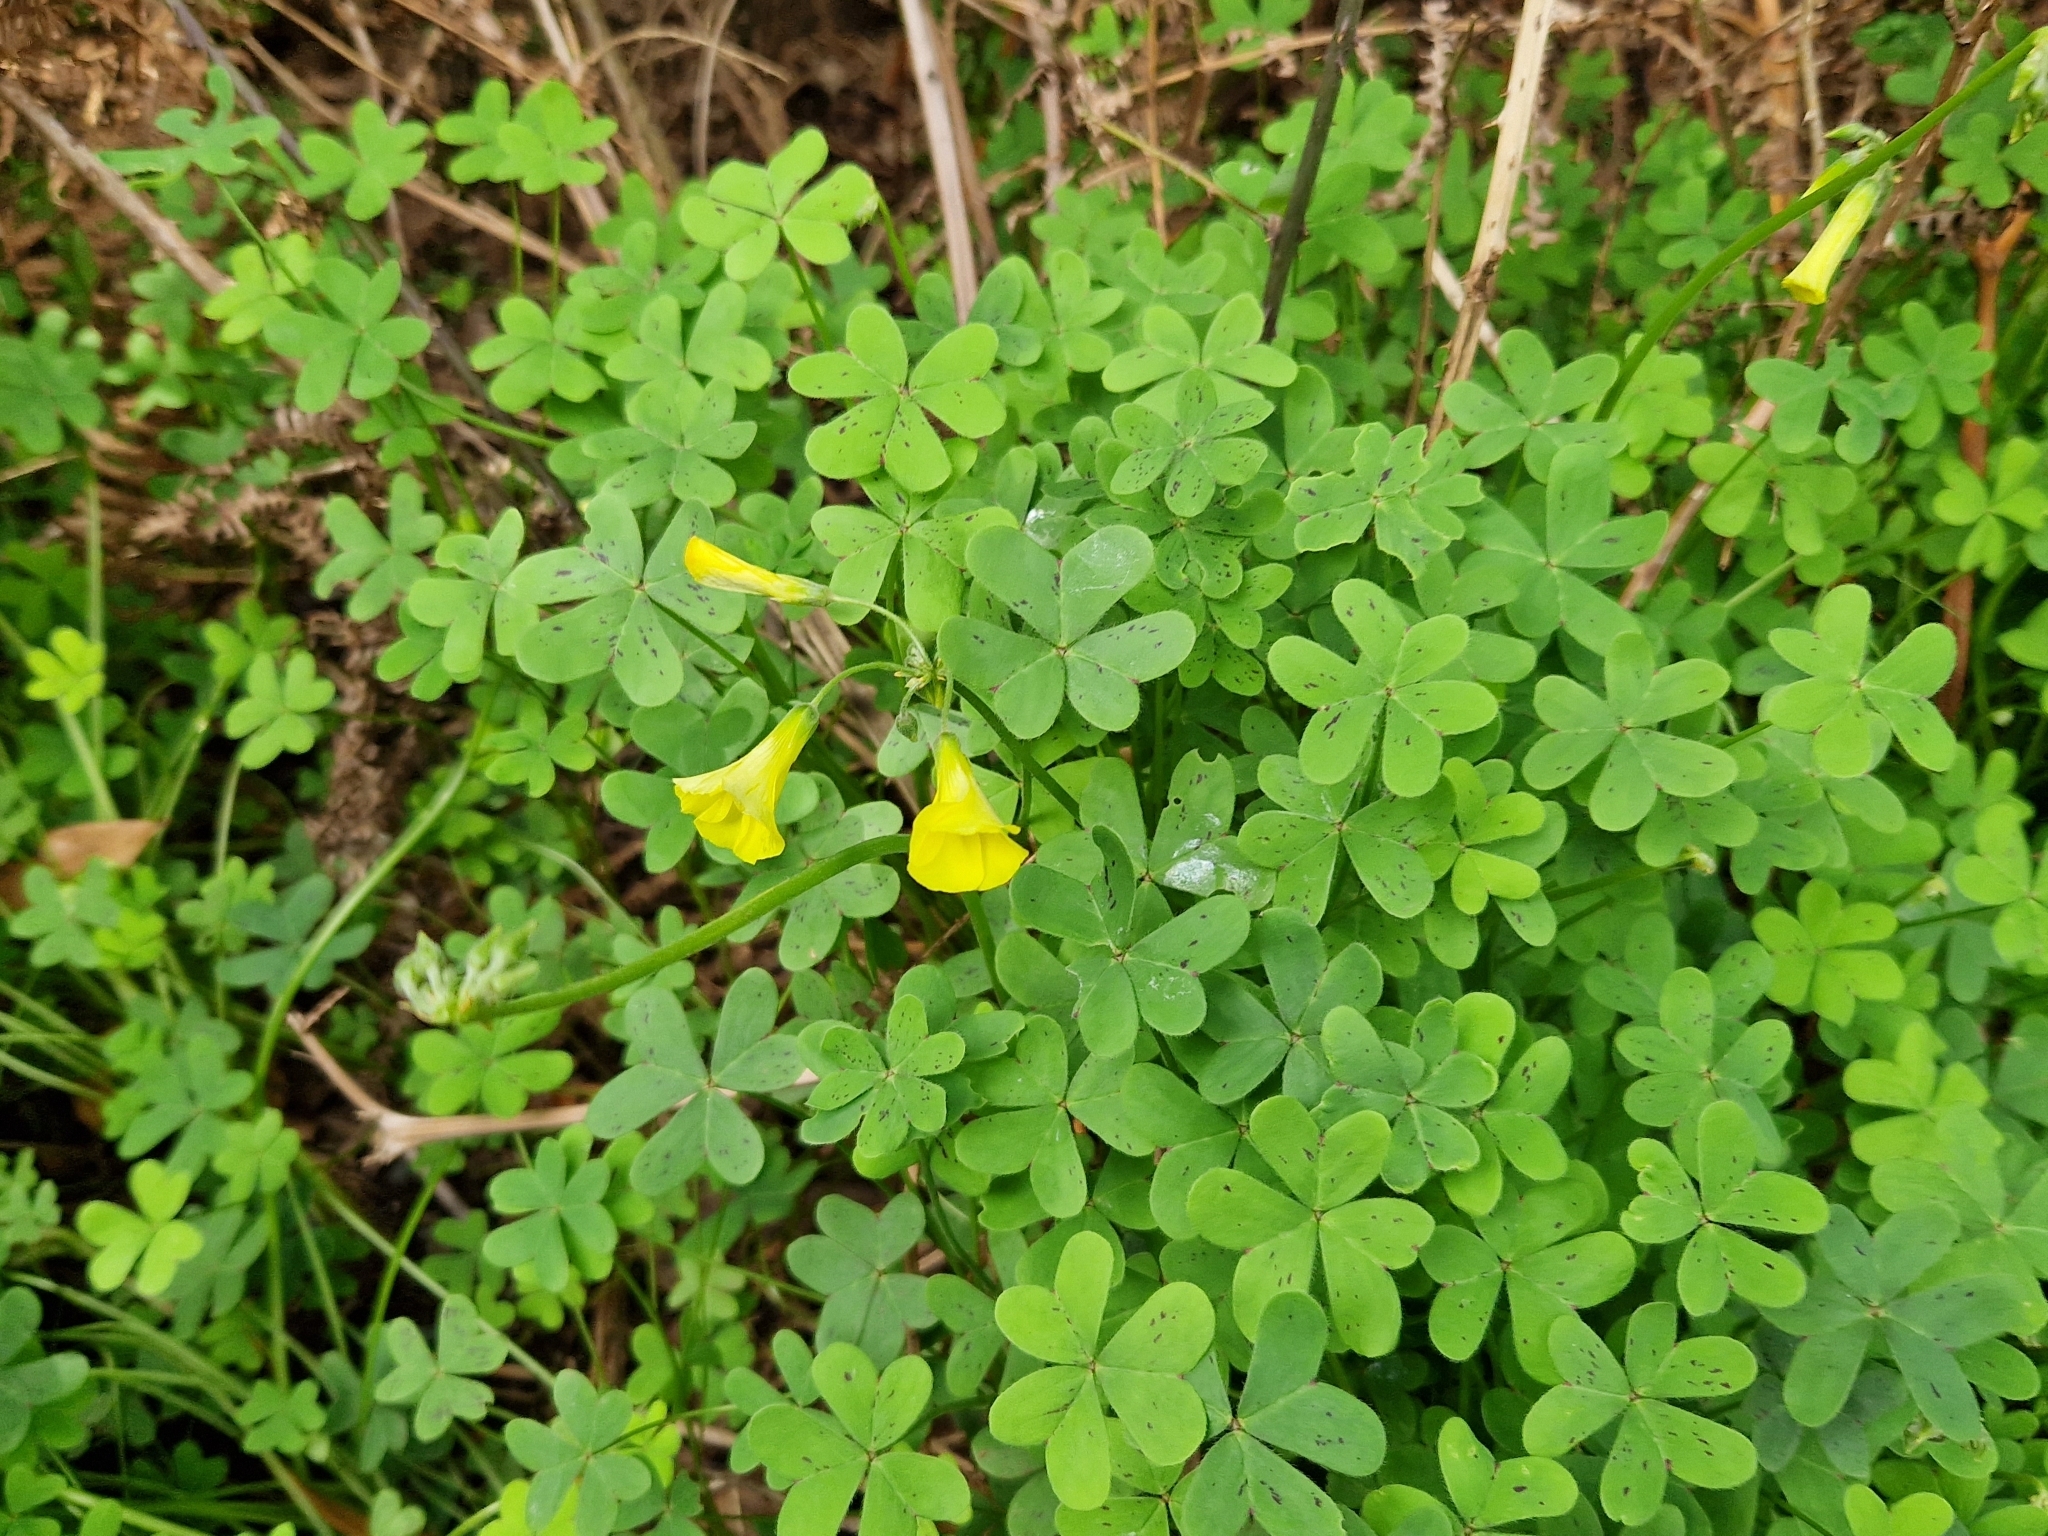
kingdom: Plantae
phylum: Tracheophyta
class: Magnoliopsida
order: Oxalidales
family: Oxalidaceae
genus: Oxalis
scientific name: Oxalis pes-caprae
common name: Bermuda-buttercup
